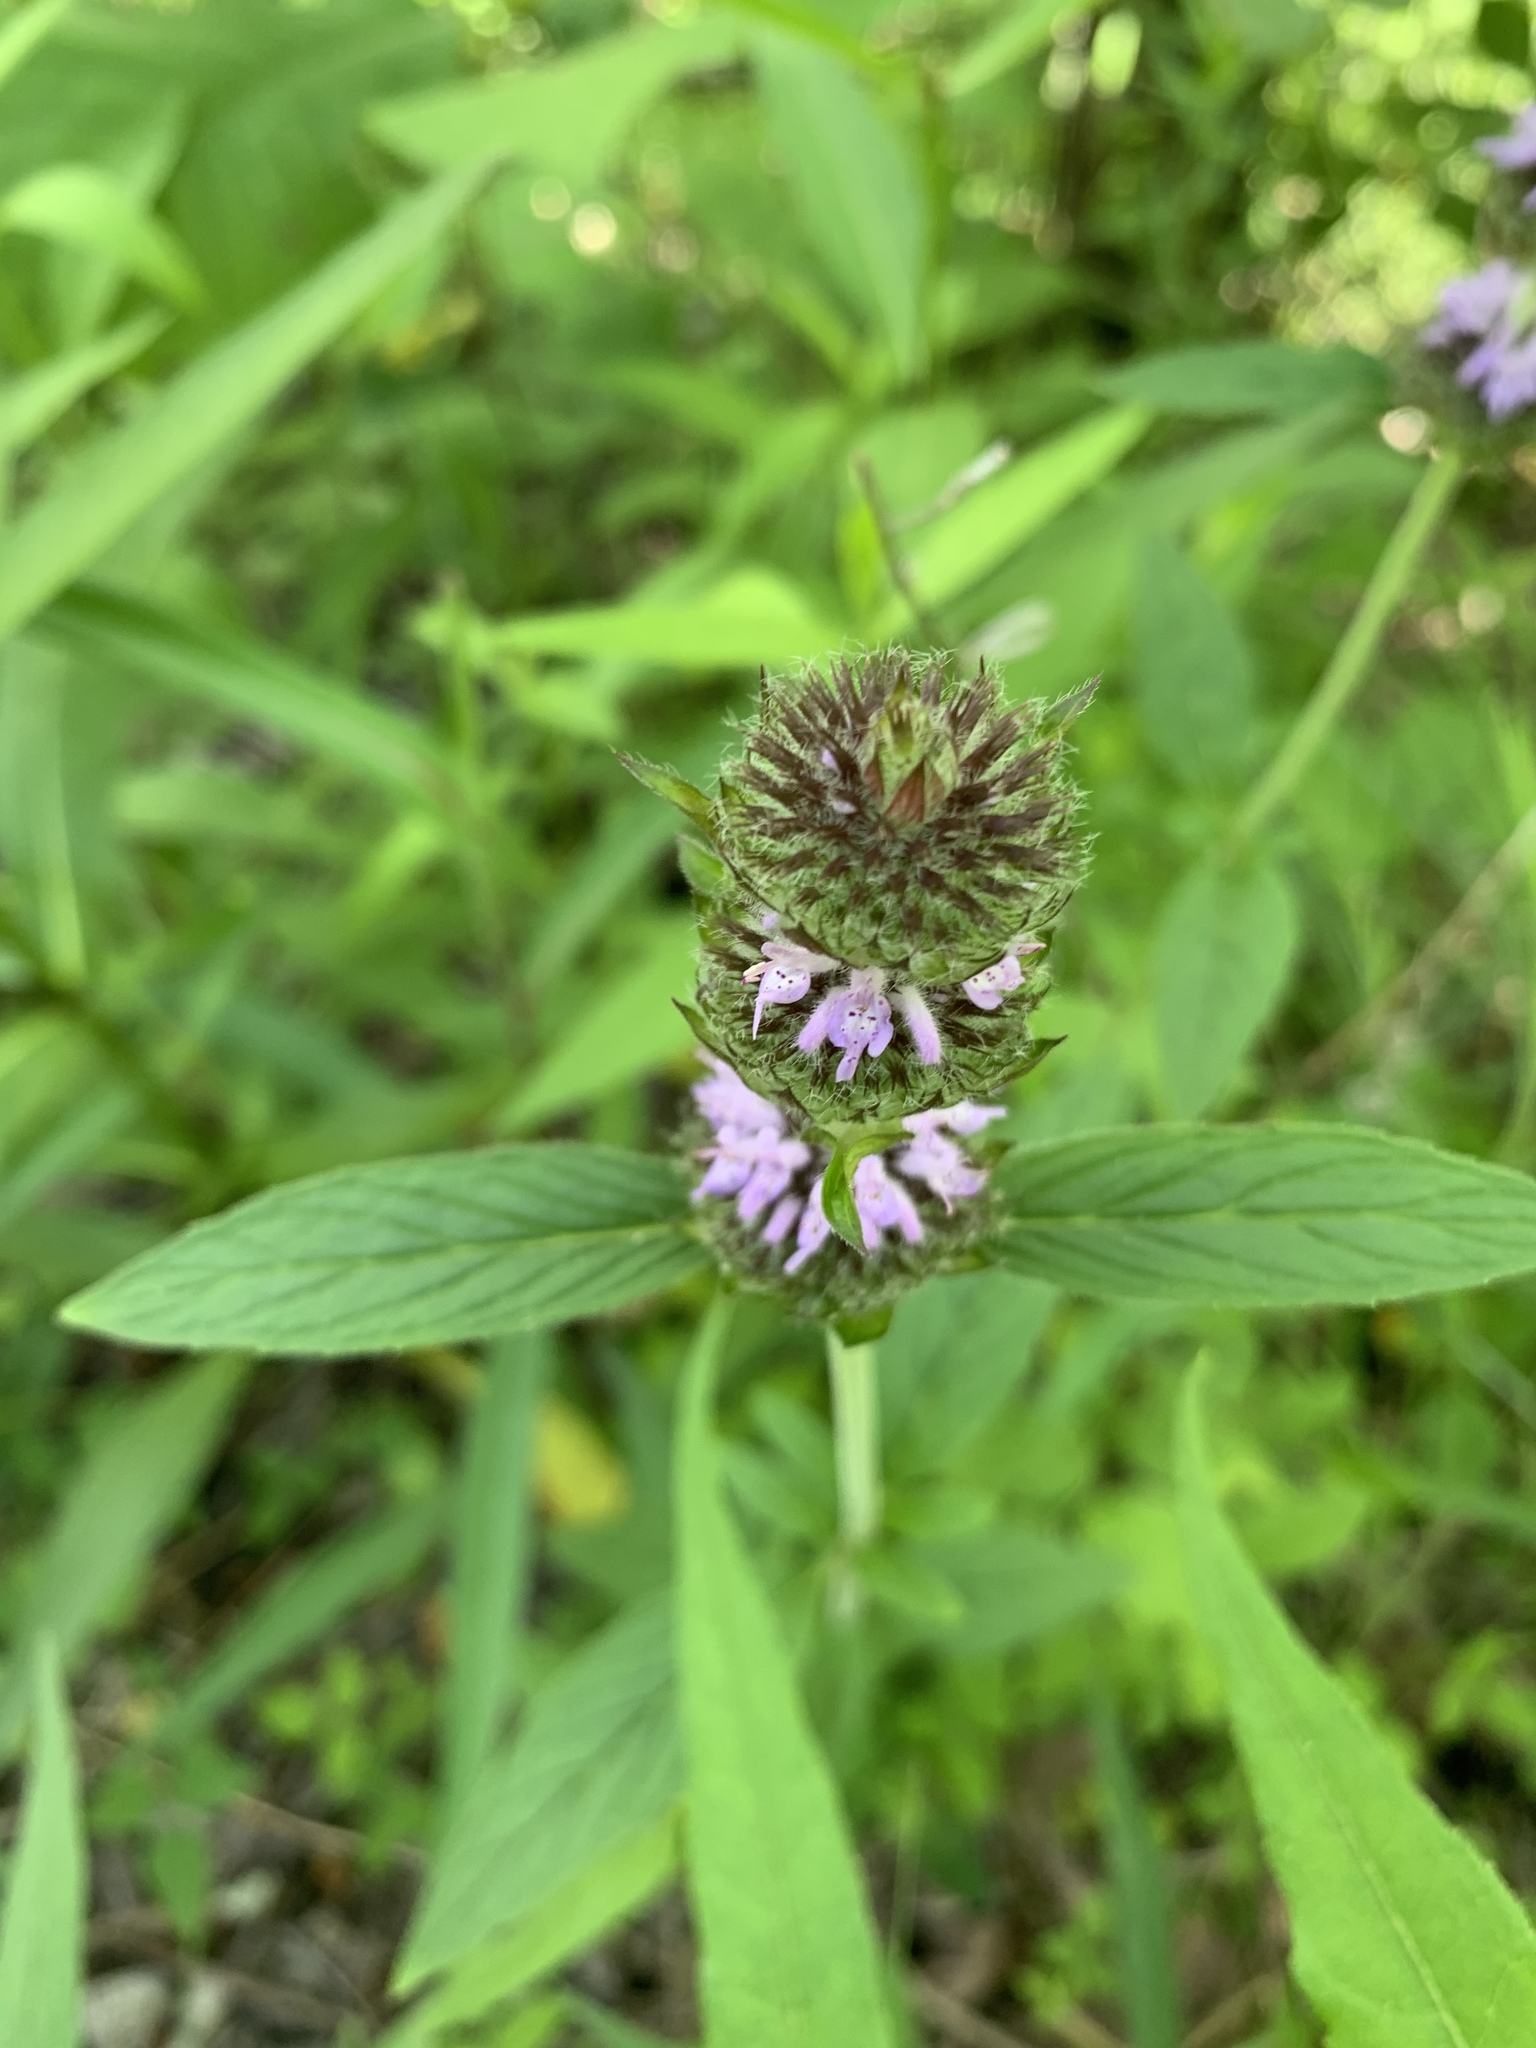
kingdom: Plantae
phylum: Tracheophyta
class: Magnoliopsida
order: Lamiales
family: Lamiaceae
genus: Blephilia
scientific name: Blephilia ciliata
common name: Downy blephilia
